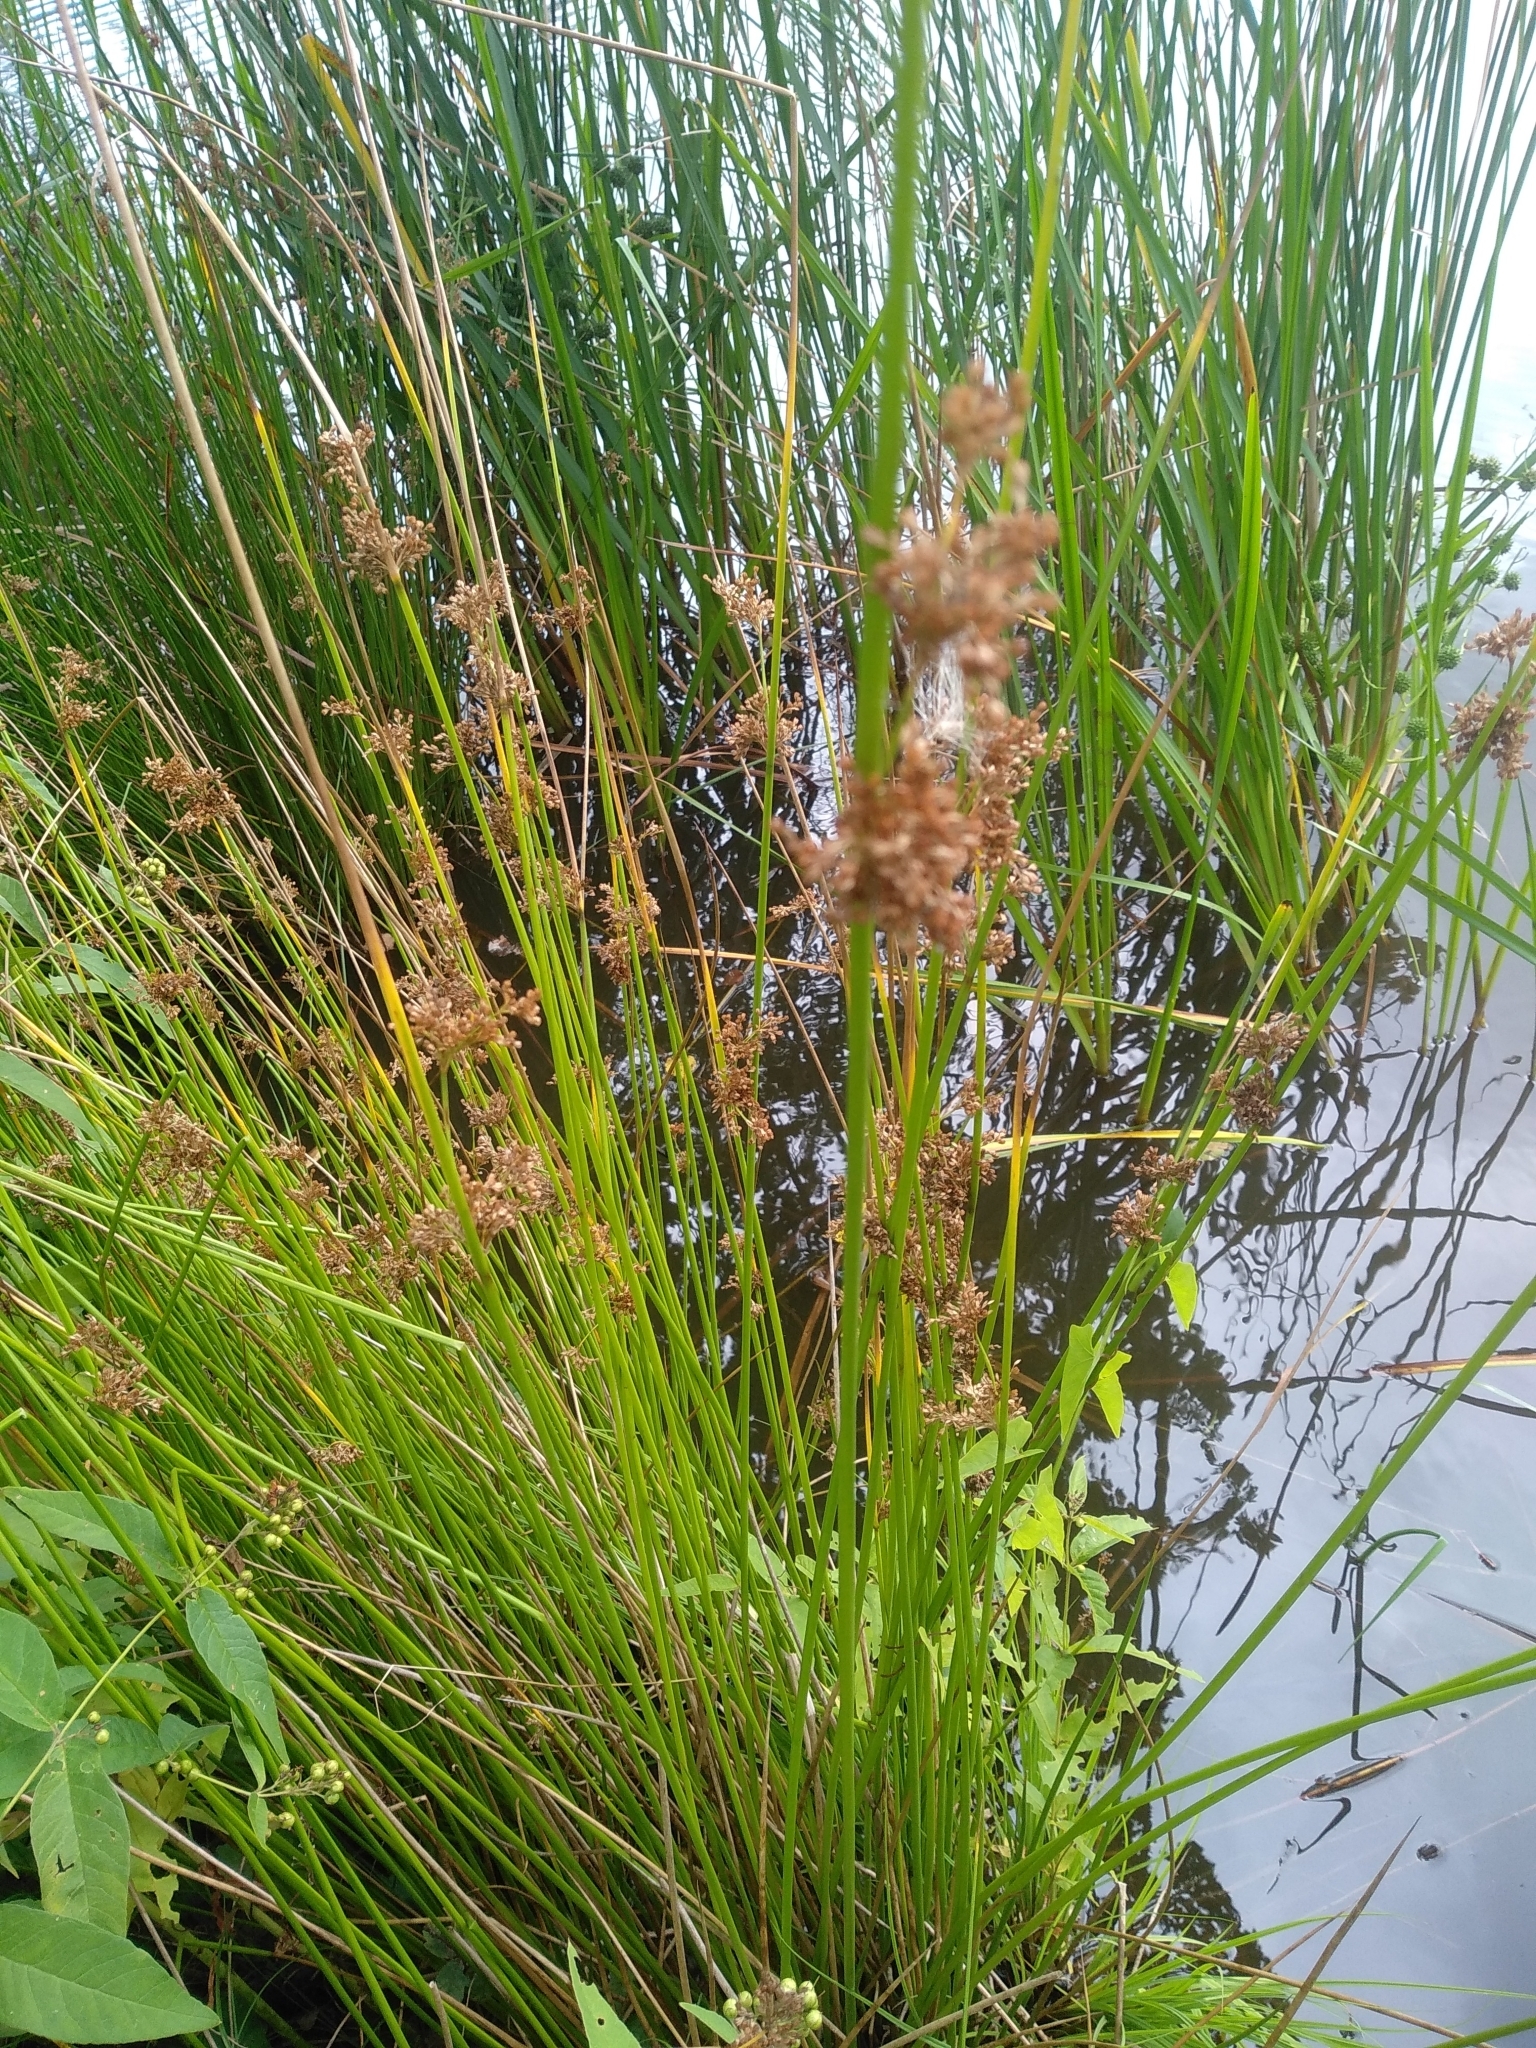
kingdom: Plantae
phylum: Tracheophyta
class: Liliopsida
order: Poales
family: Juncaceae
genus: Juncus
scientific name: Juncus effusus
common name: Soft rush
